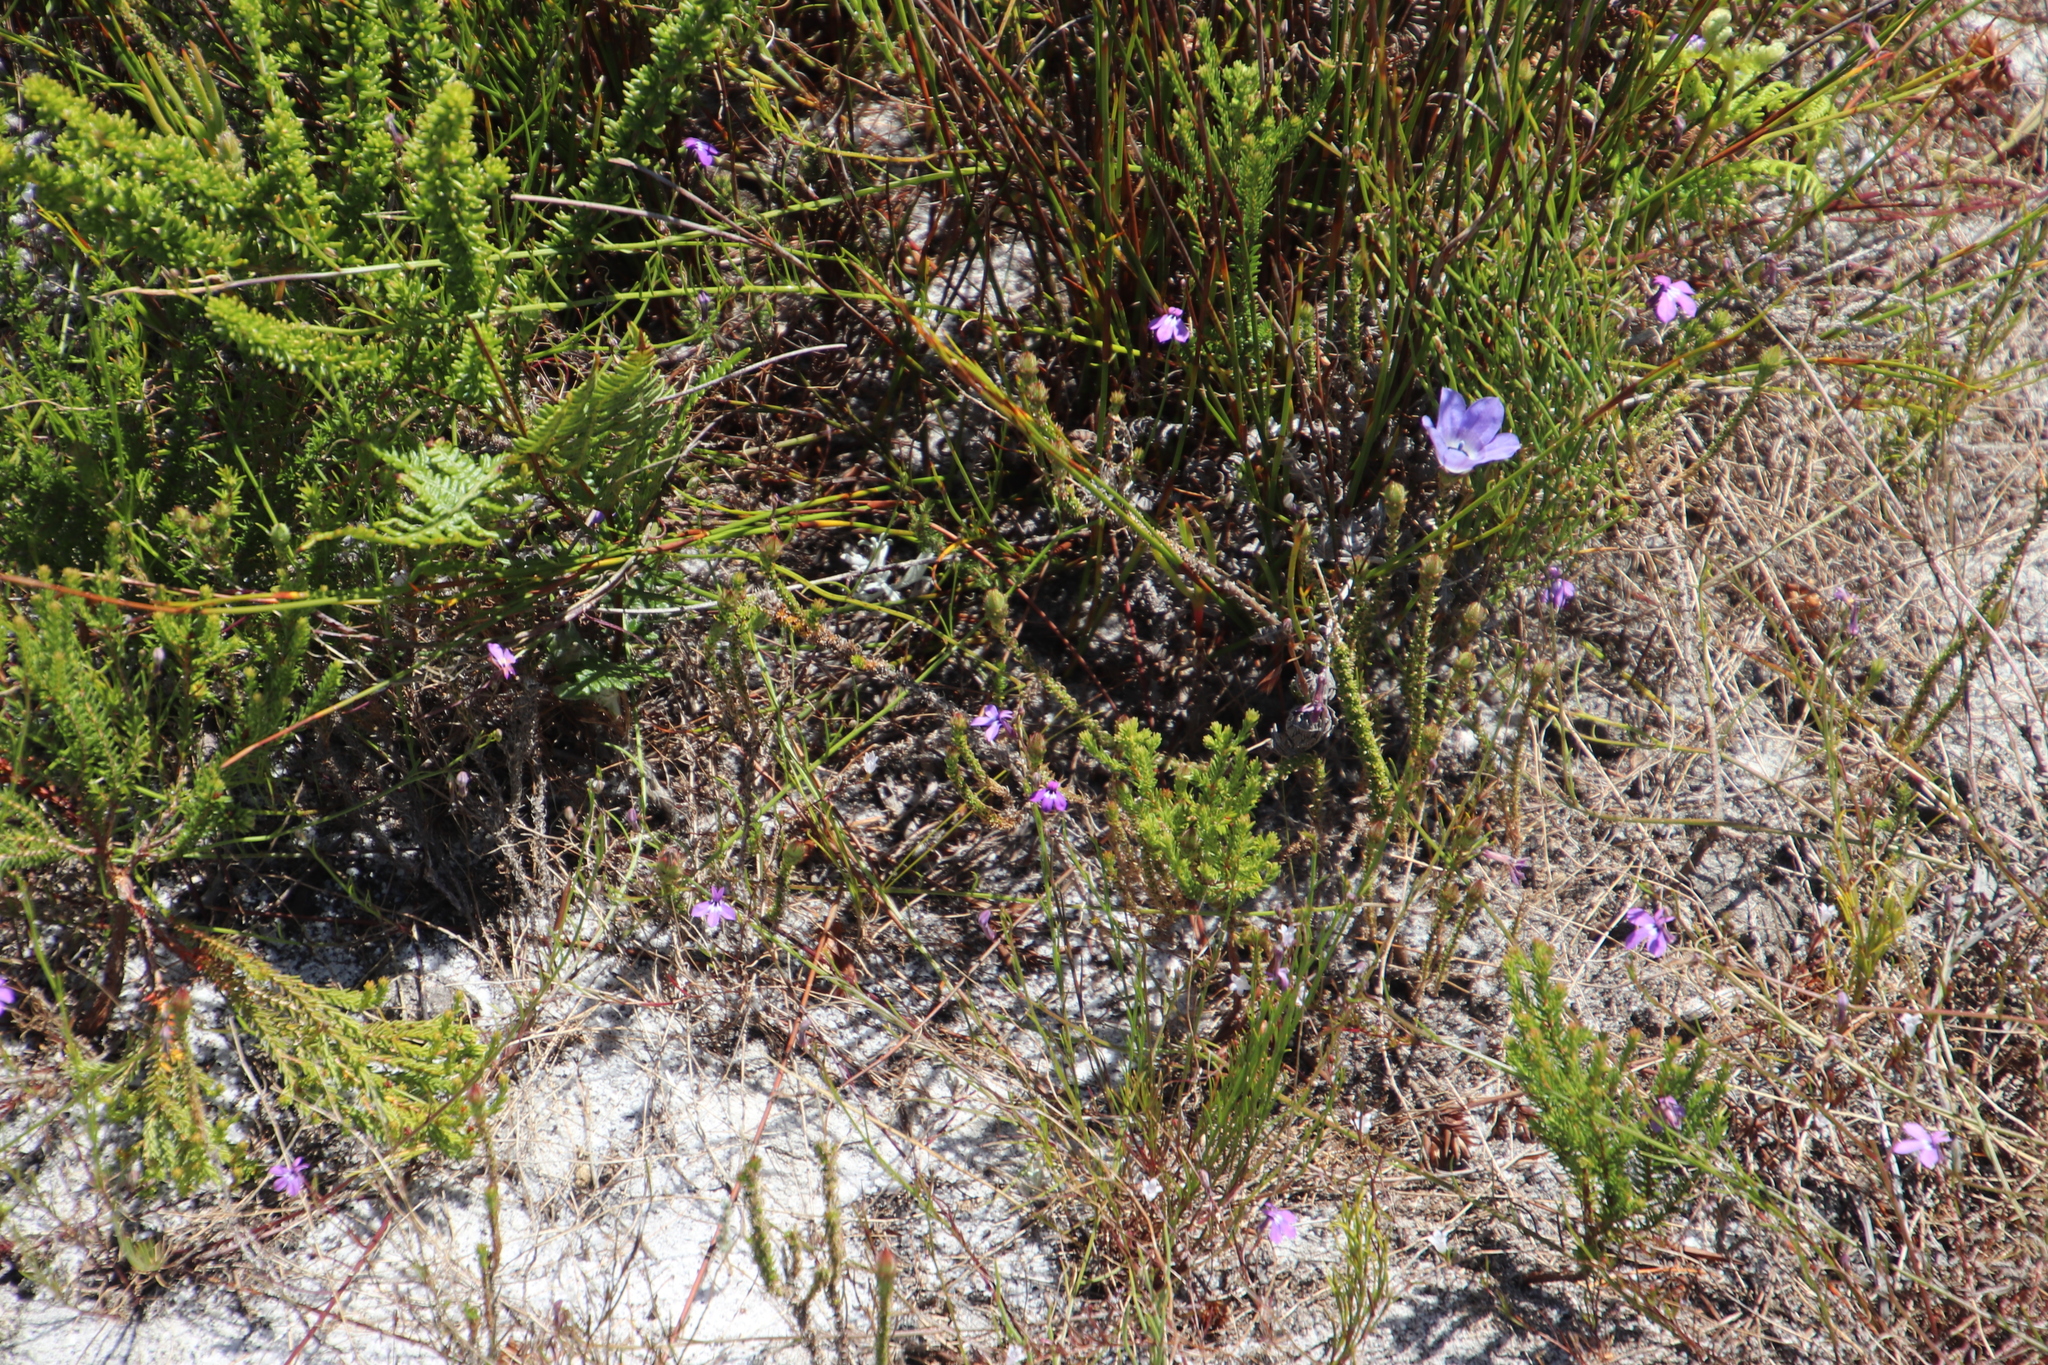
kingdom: Plantae
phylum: Tracheophyta
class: Magnoliopsida
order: Asterales
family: Campanulaceae
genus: Roella
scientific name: Roella triflora
